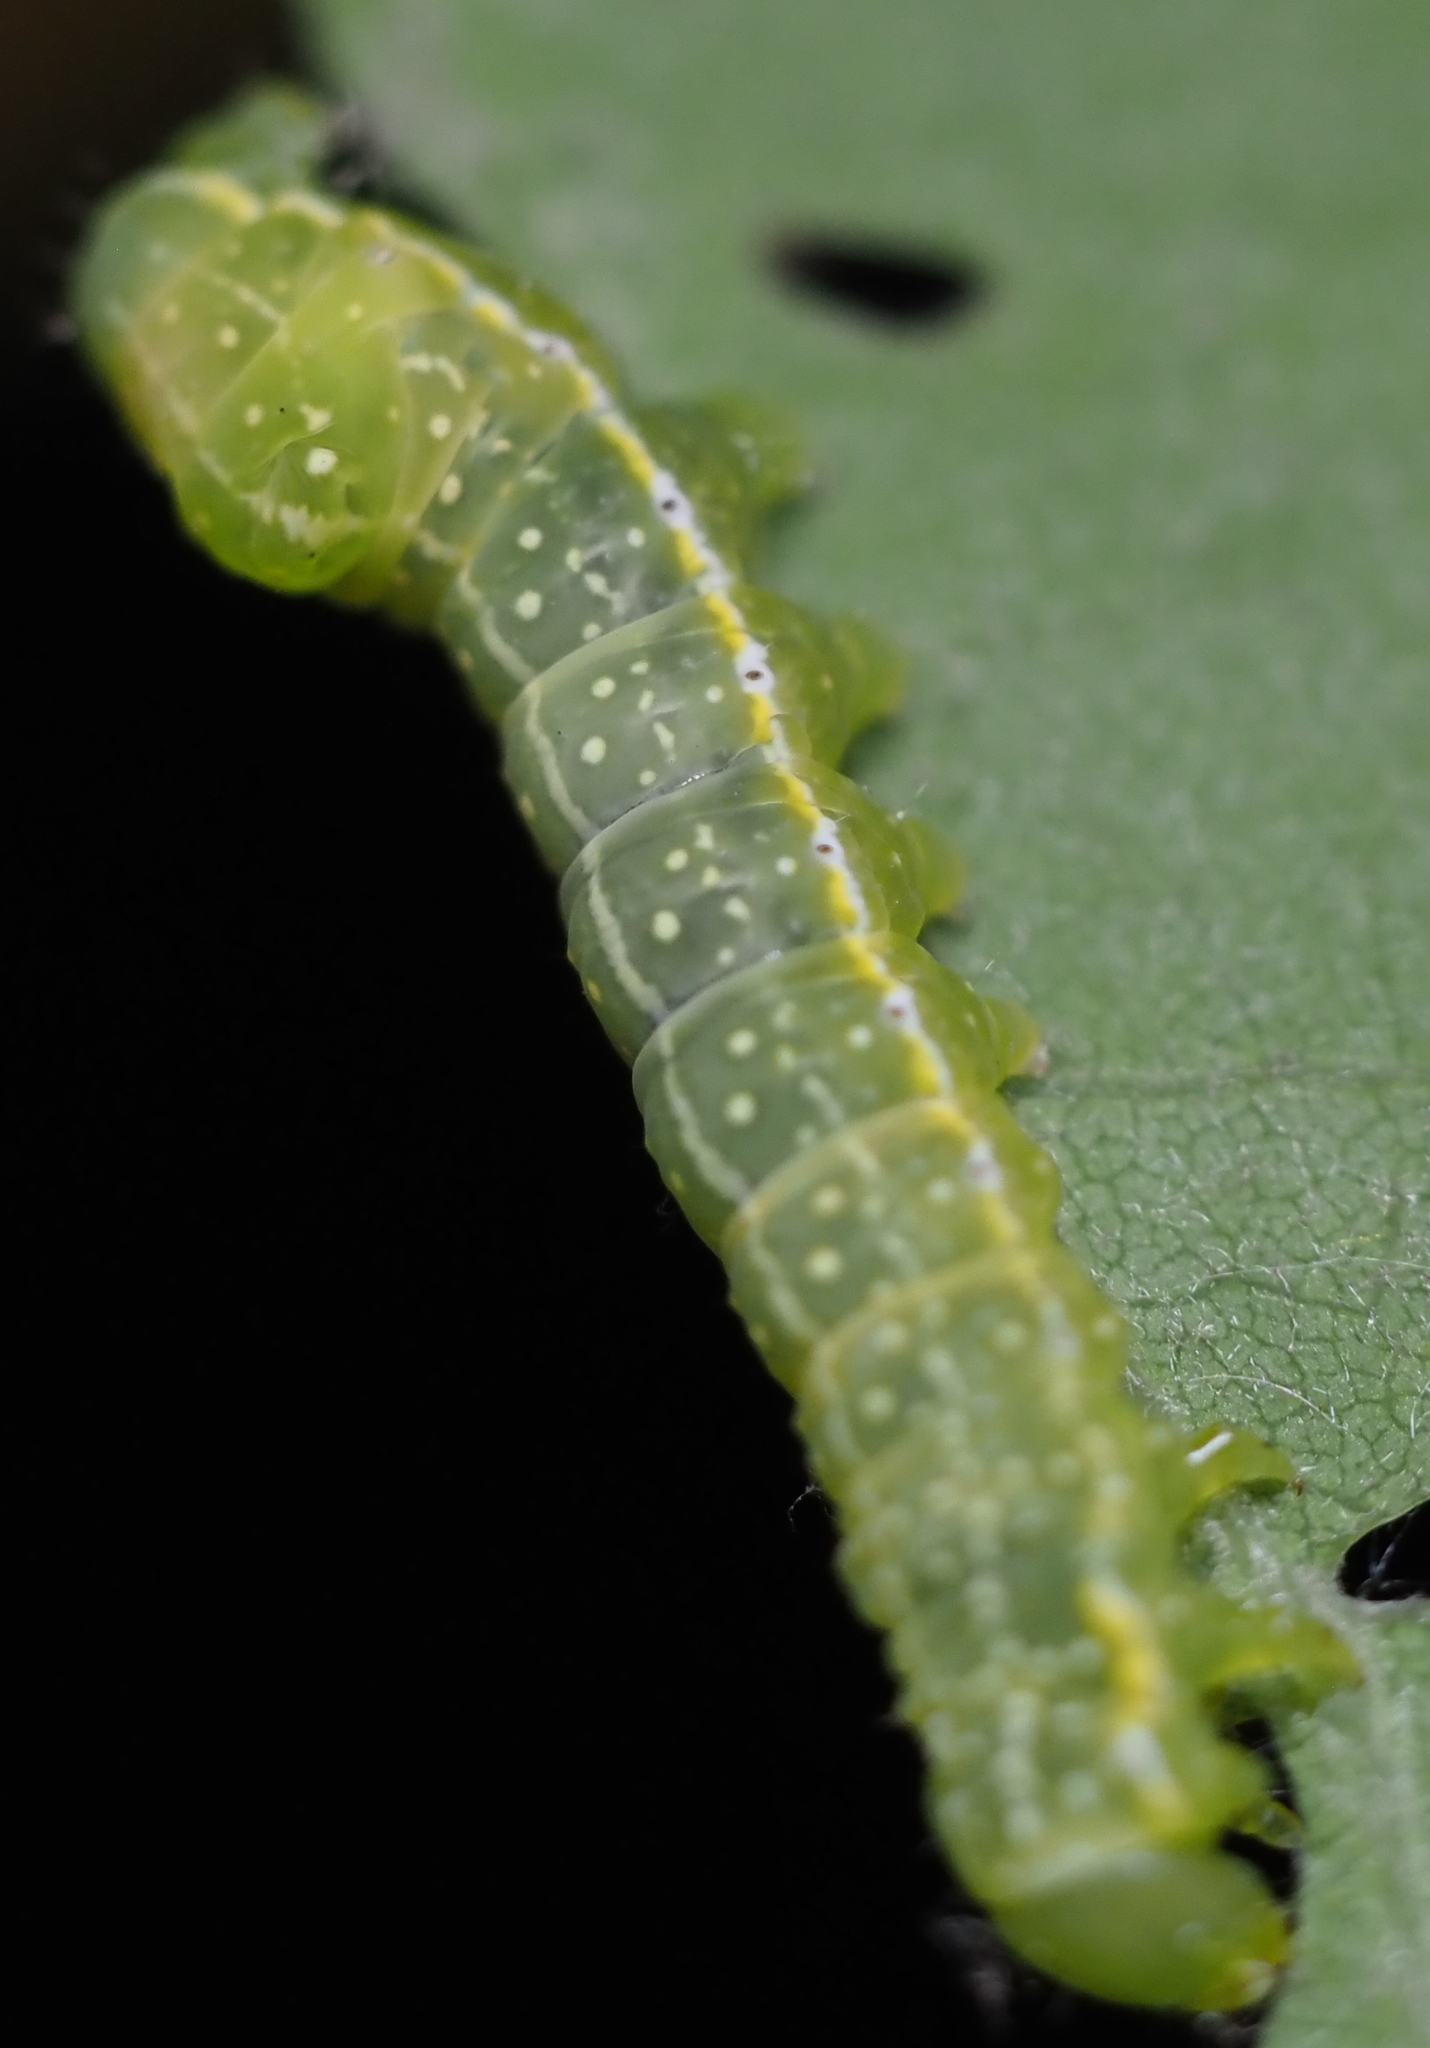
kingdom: Animalia
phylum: Arthropoda
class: Insecta
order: Lepidoptera
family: Noctuidae
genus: Amphipyra
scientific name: Amphipyra pyramidoides
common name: American copper underwing
